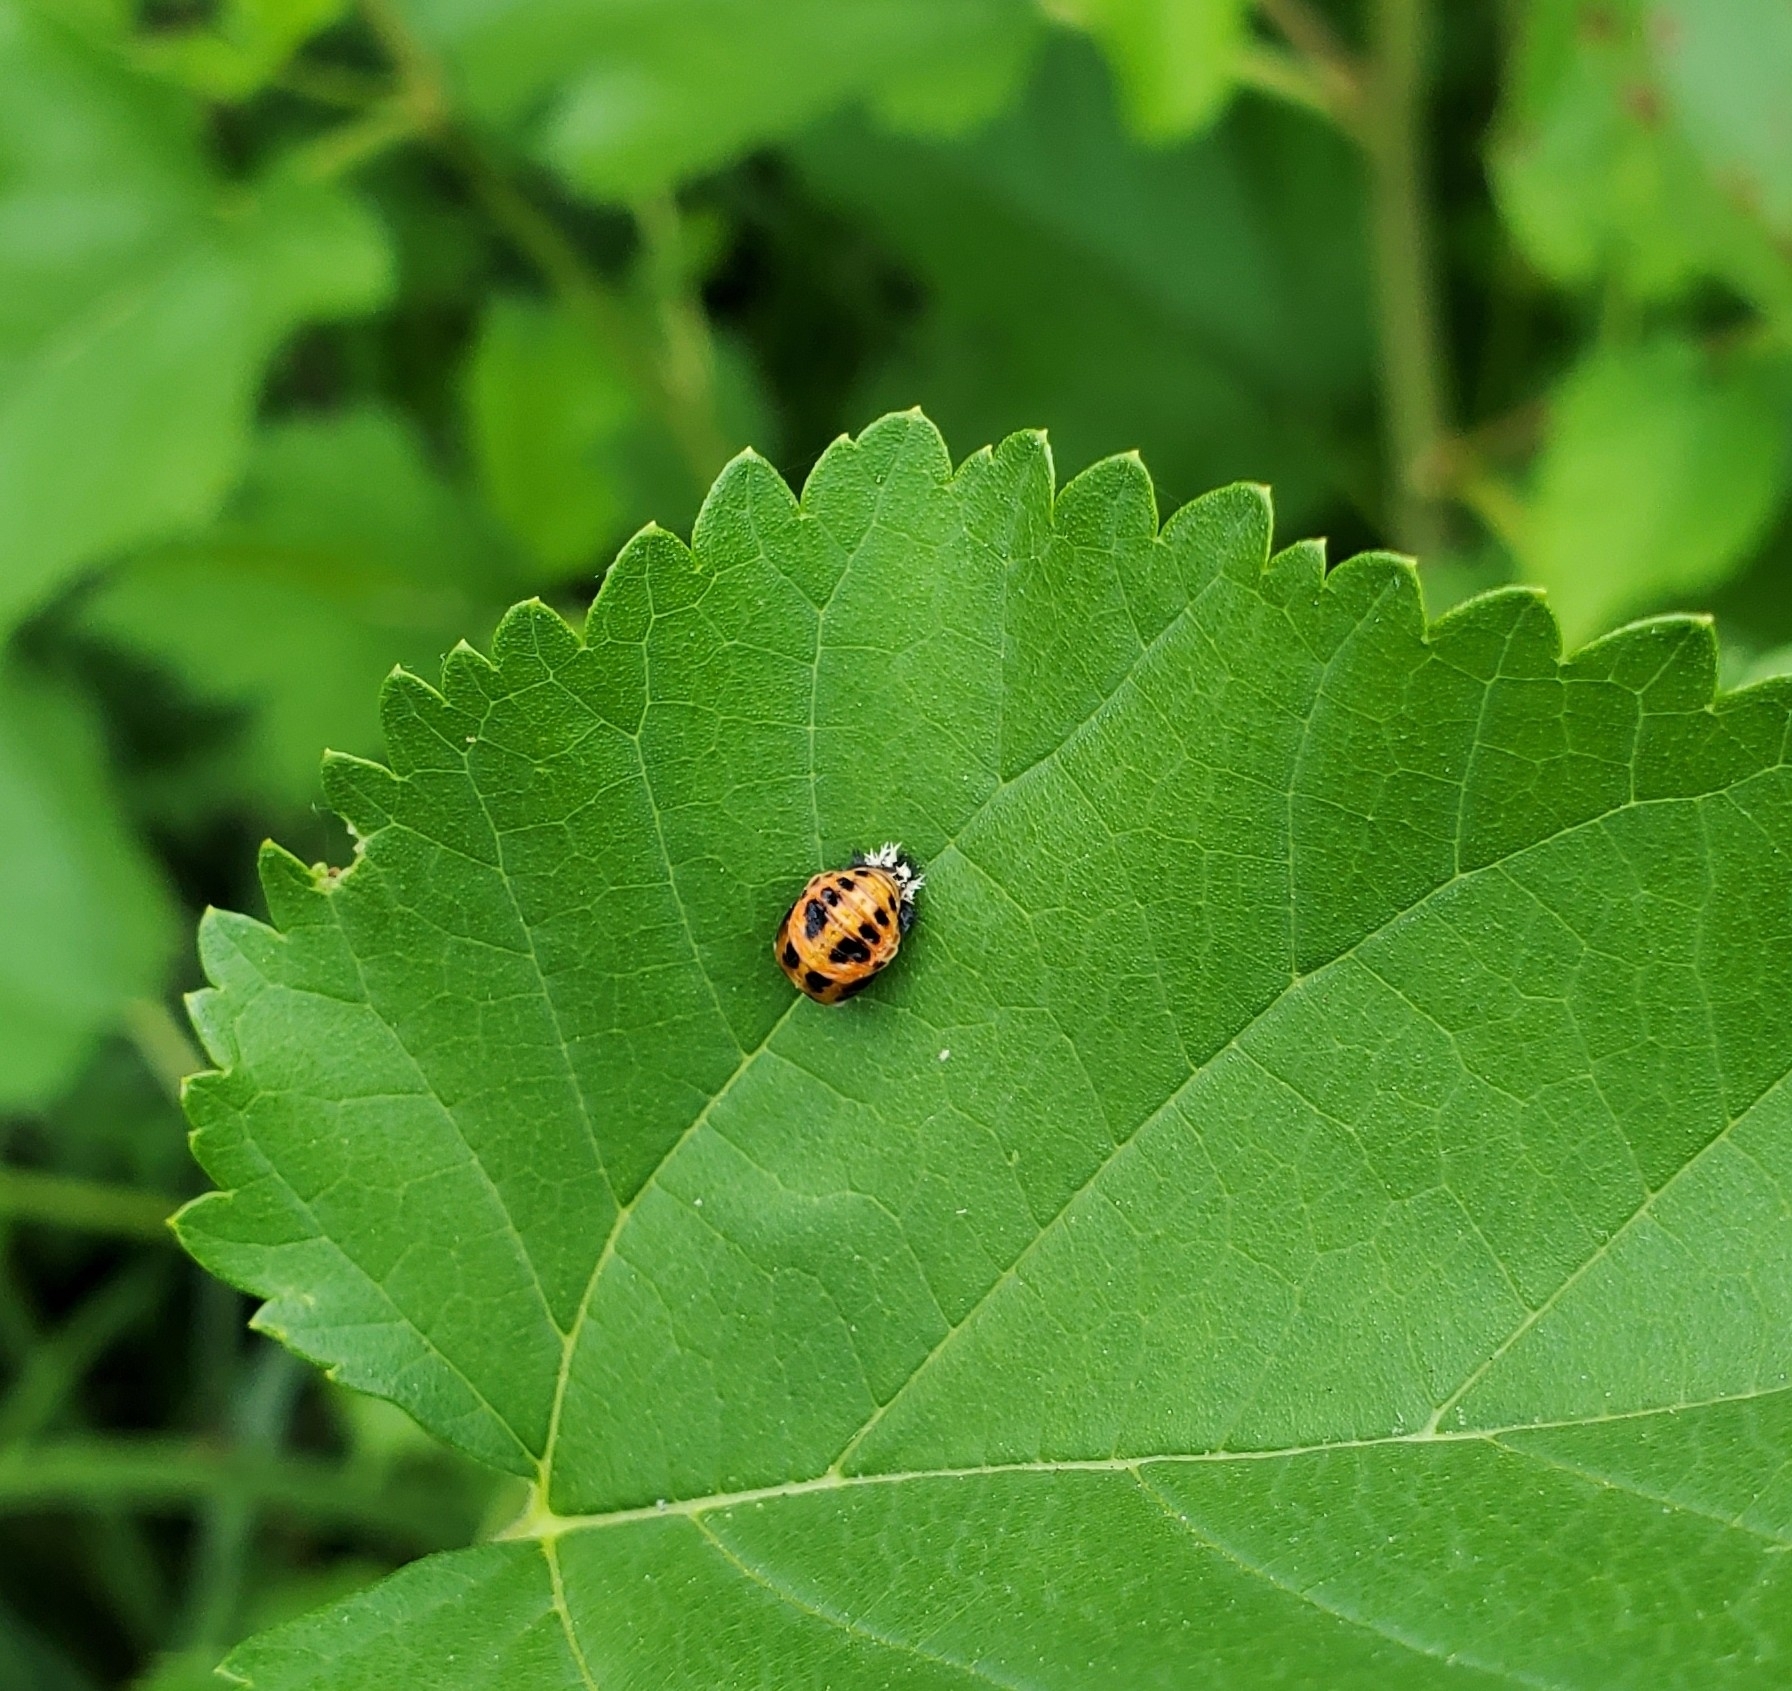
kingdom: Animalia
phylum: Arthropoda
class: Insecta
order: Coleoptera
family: Coccinellidae
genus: Harmonia
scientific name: Harmonia axyridis
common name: Harlequin ladybird
